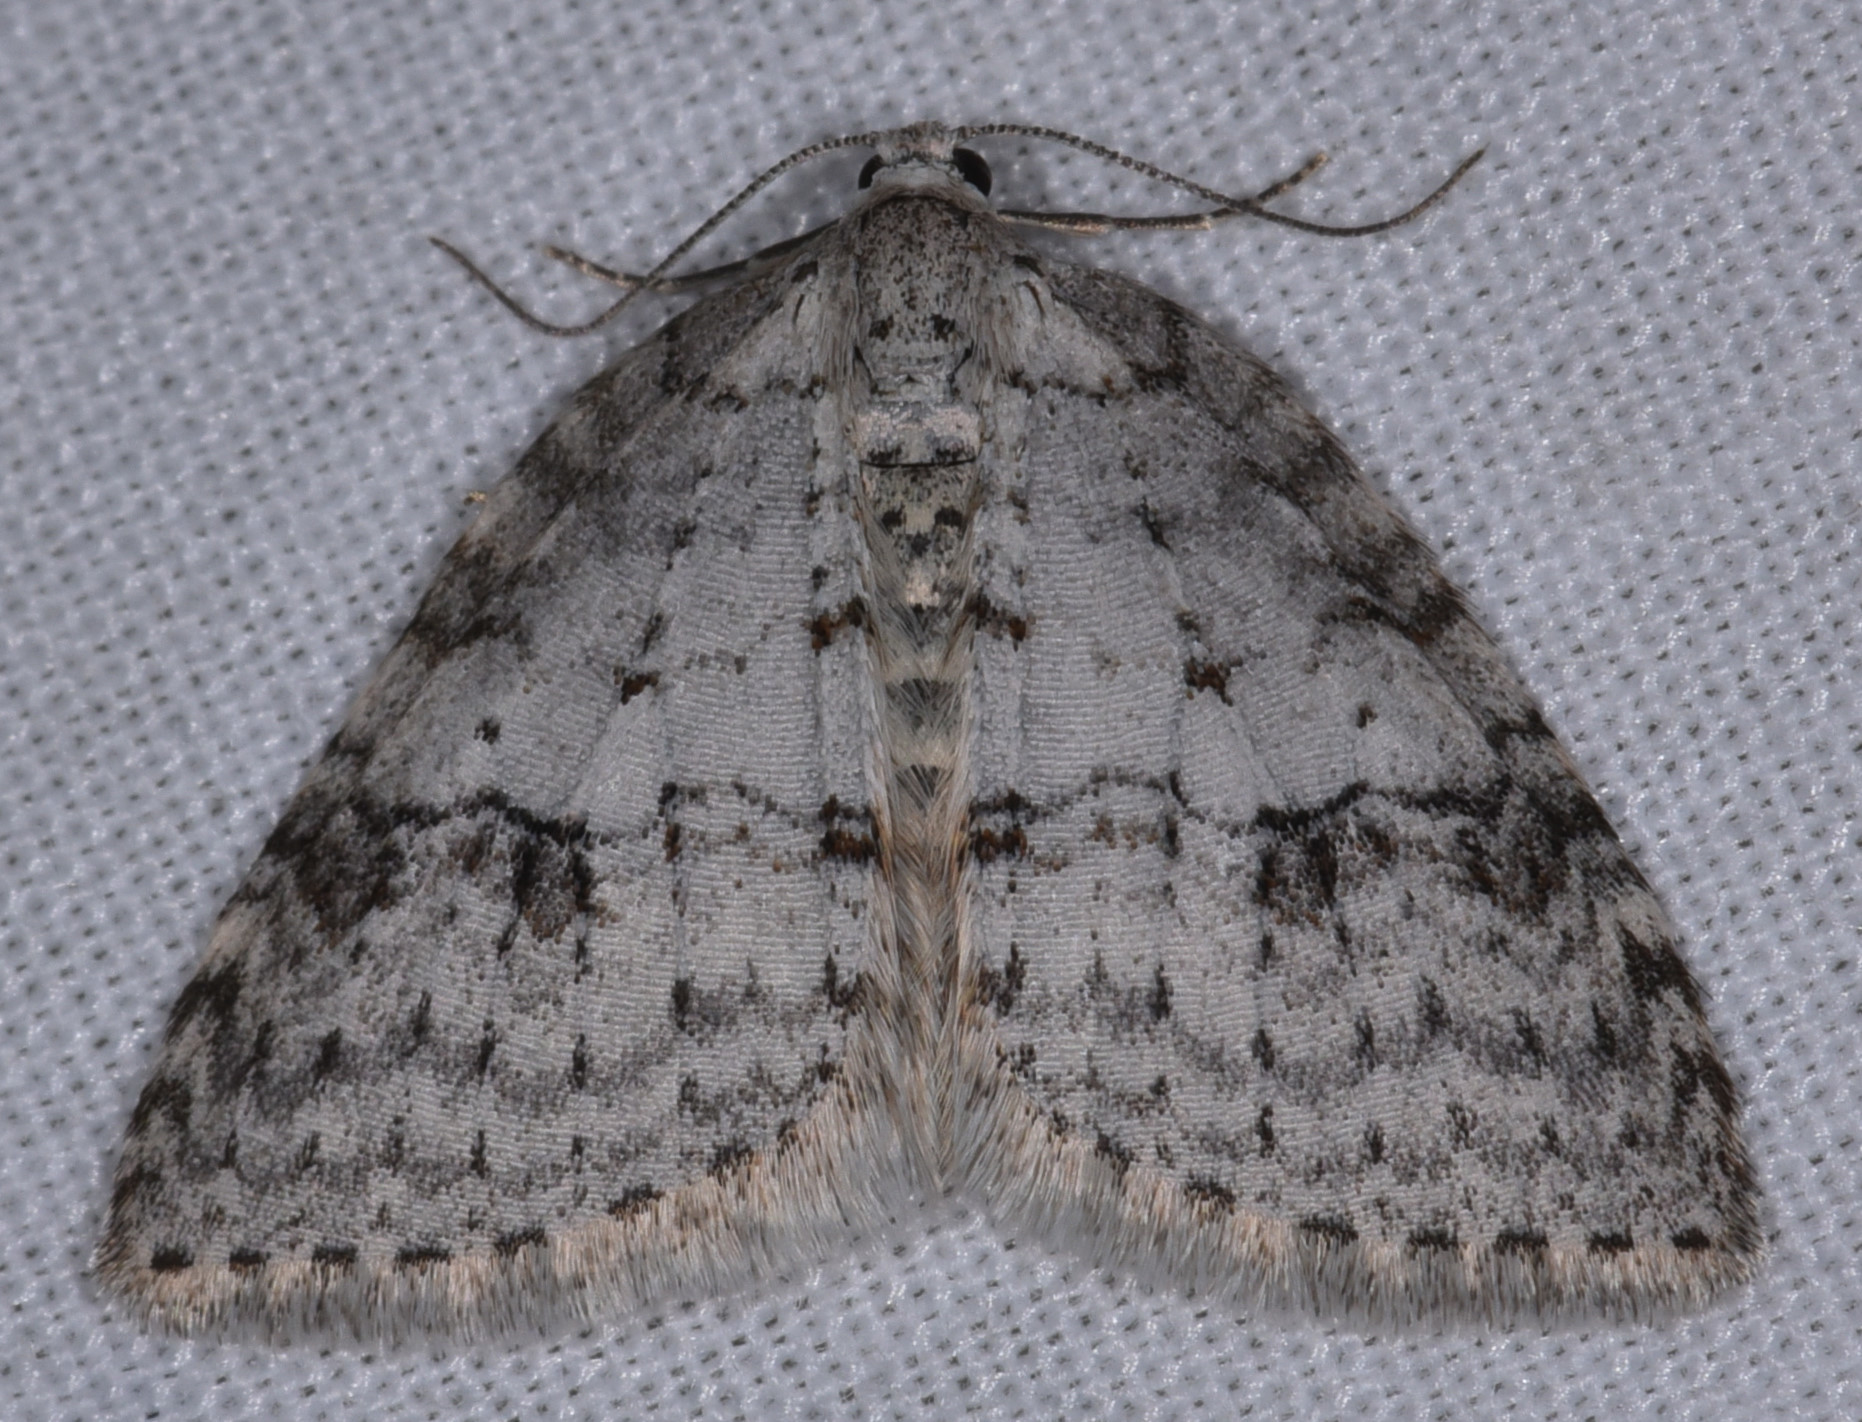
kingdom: Animalia
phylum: Arthropoda
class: Insecta
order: Lepidoptera
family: Geometridae
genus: Venusia
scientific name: Venusia
